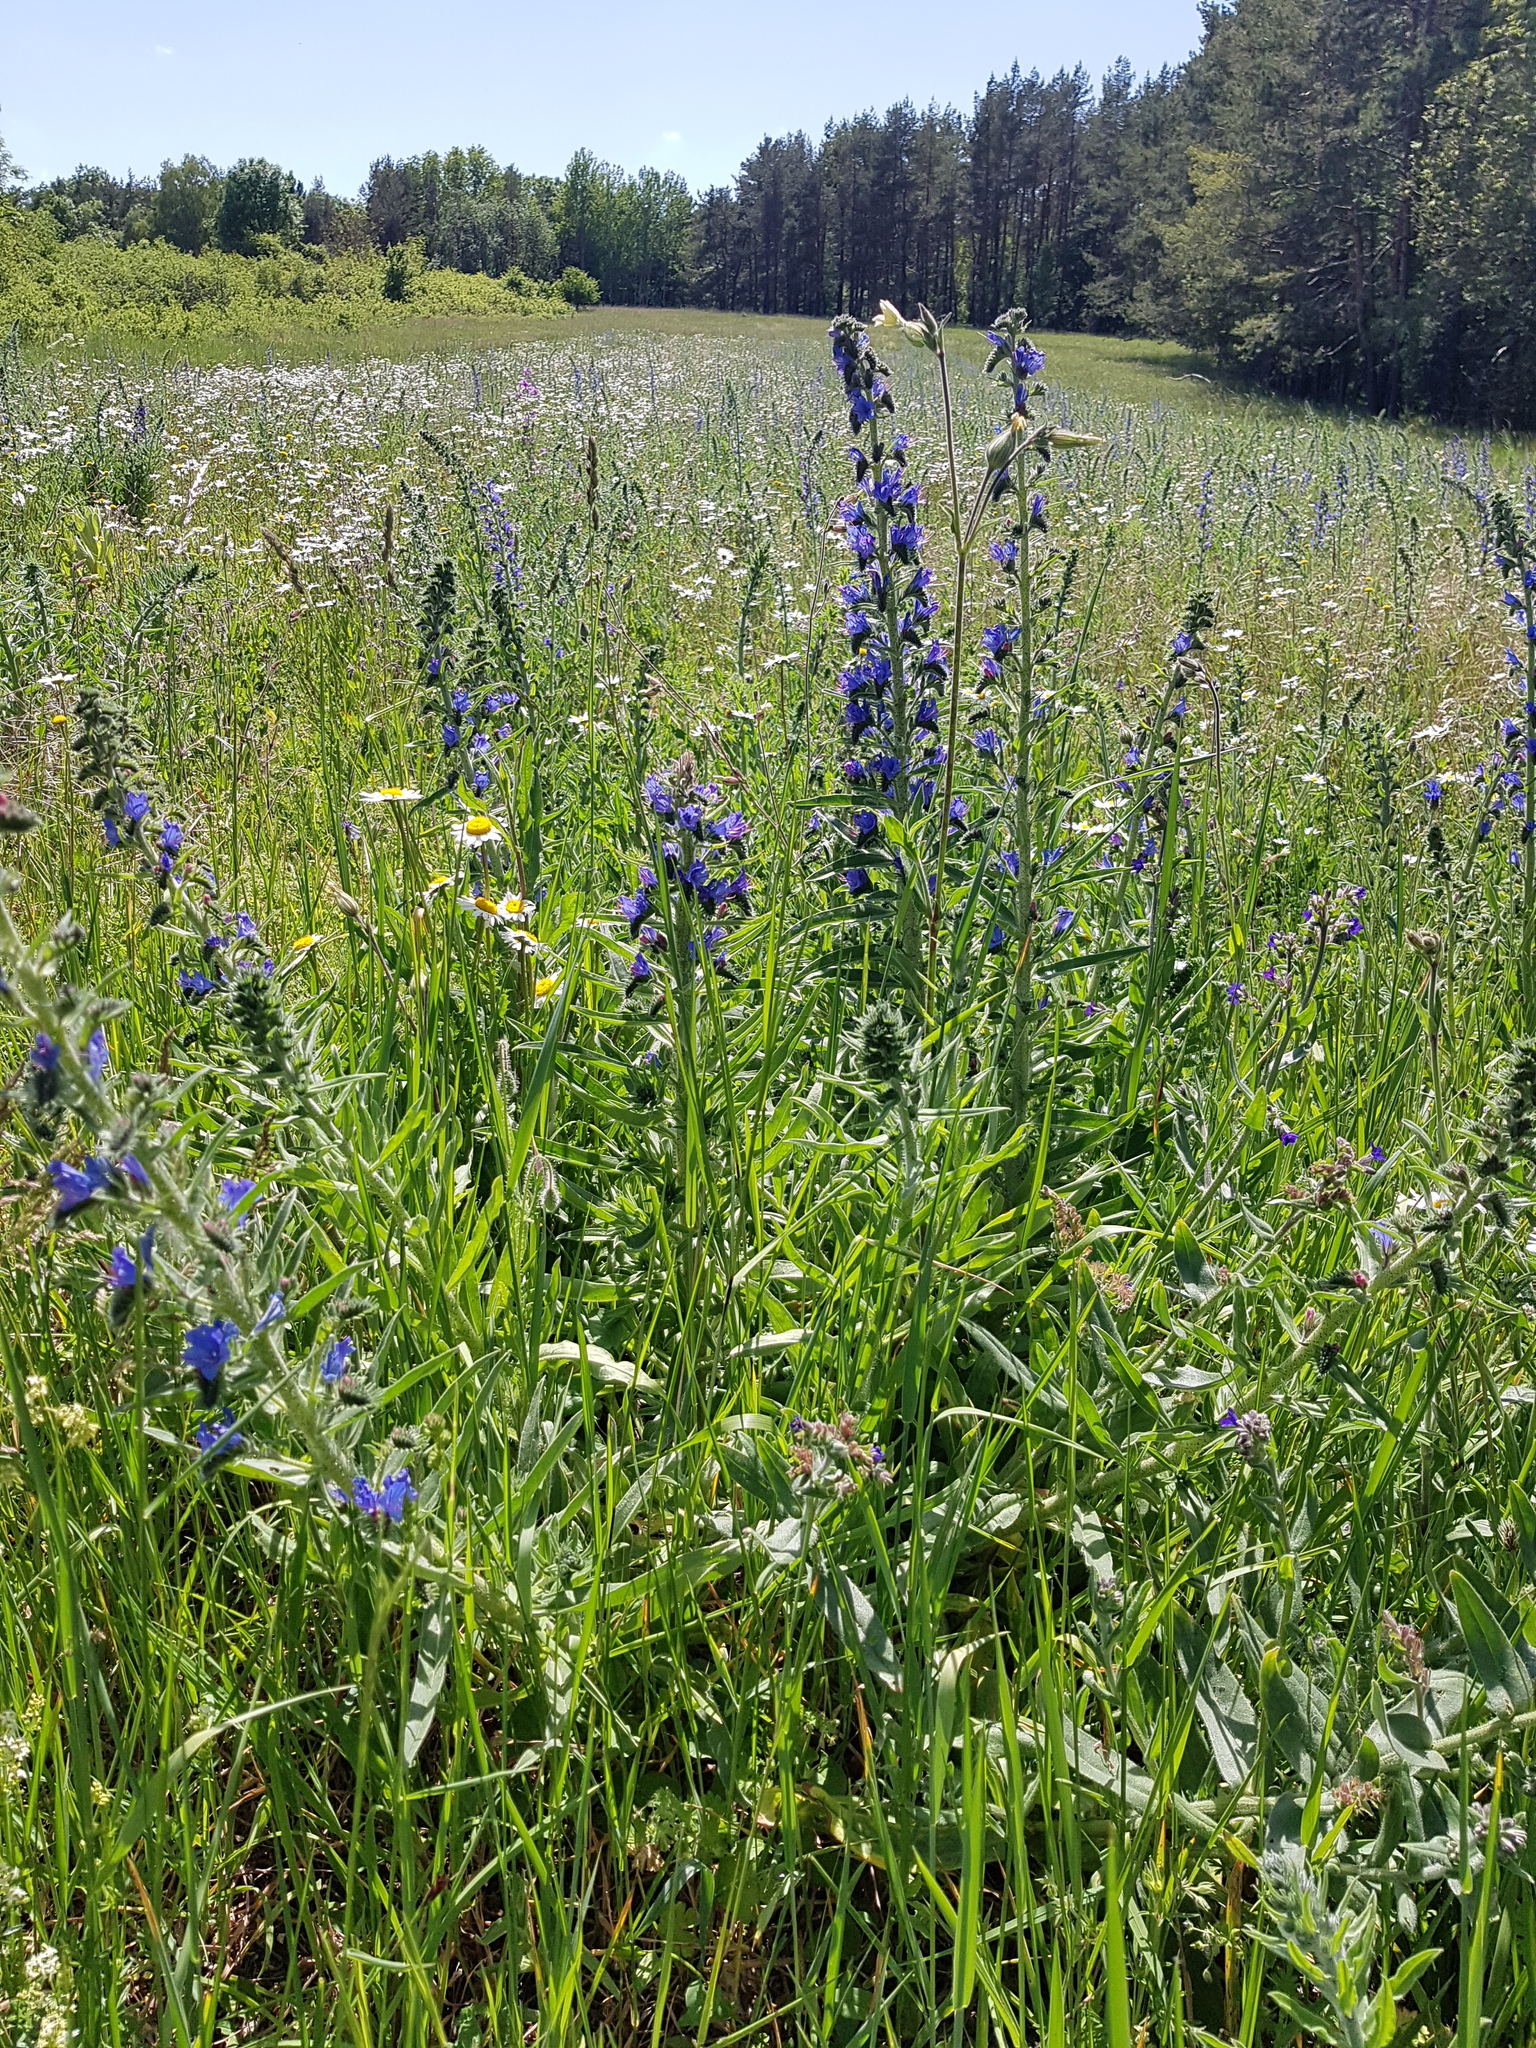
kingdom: Plantae
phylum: Tracheophyta
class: Magnoliopsida
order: Boraginales
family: Boraginaceae
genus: Echium
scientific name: Echium vulgare
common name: Common viper's bugloss
